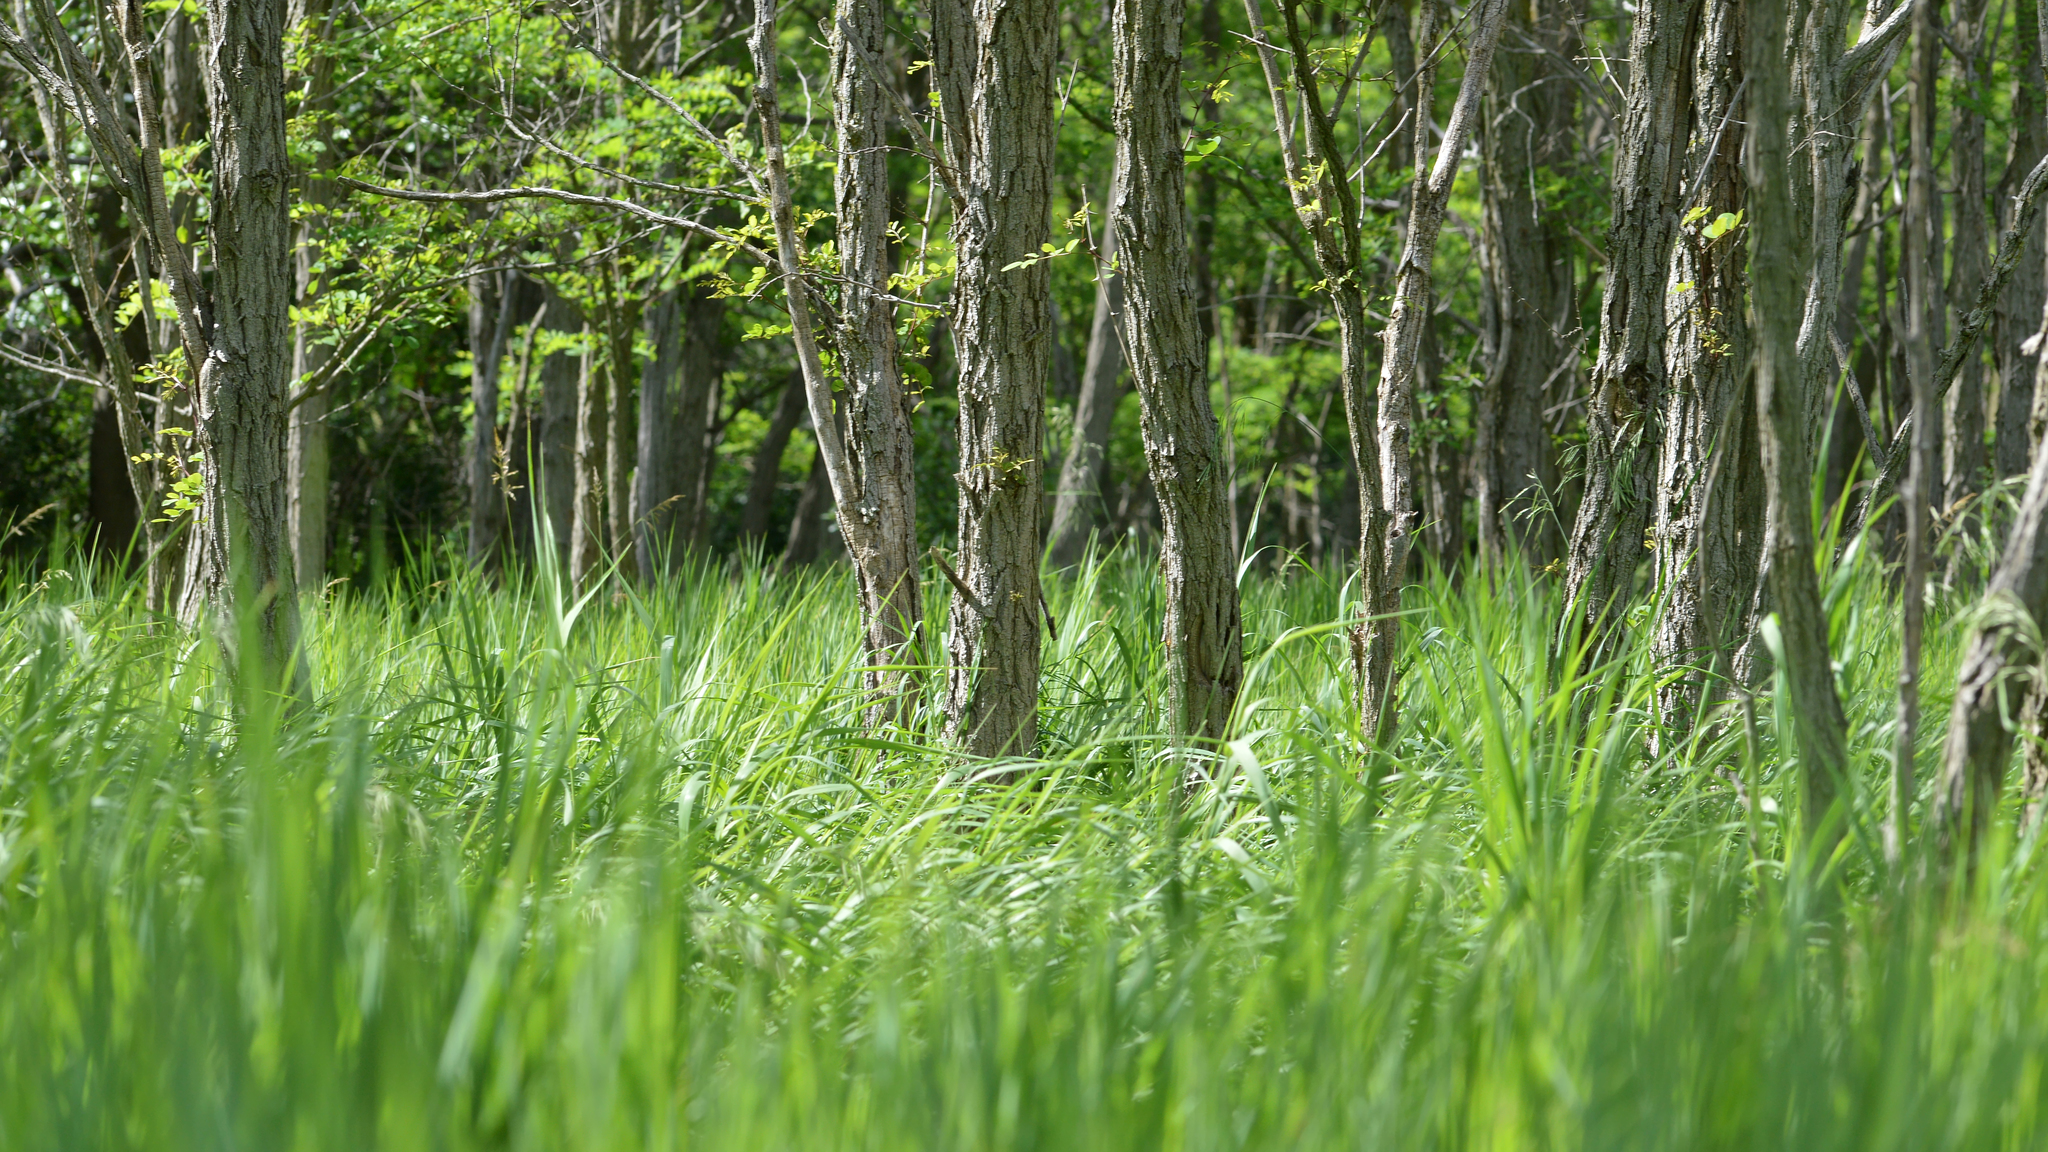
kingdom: Plantae
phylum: Tracheophyta
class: Magnoliopsida
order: Fabales
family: Fabaceae
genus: Robinia
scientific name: Robinia pseudoacacia
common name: Black locust
